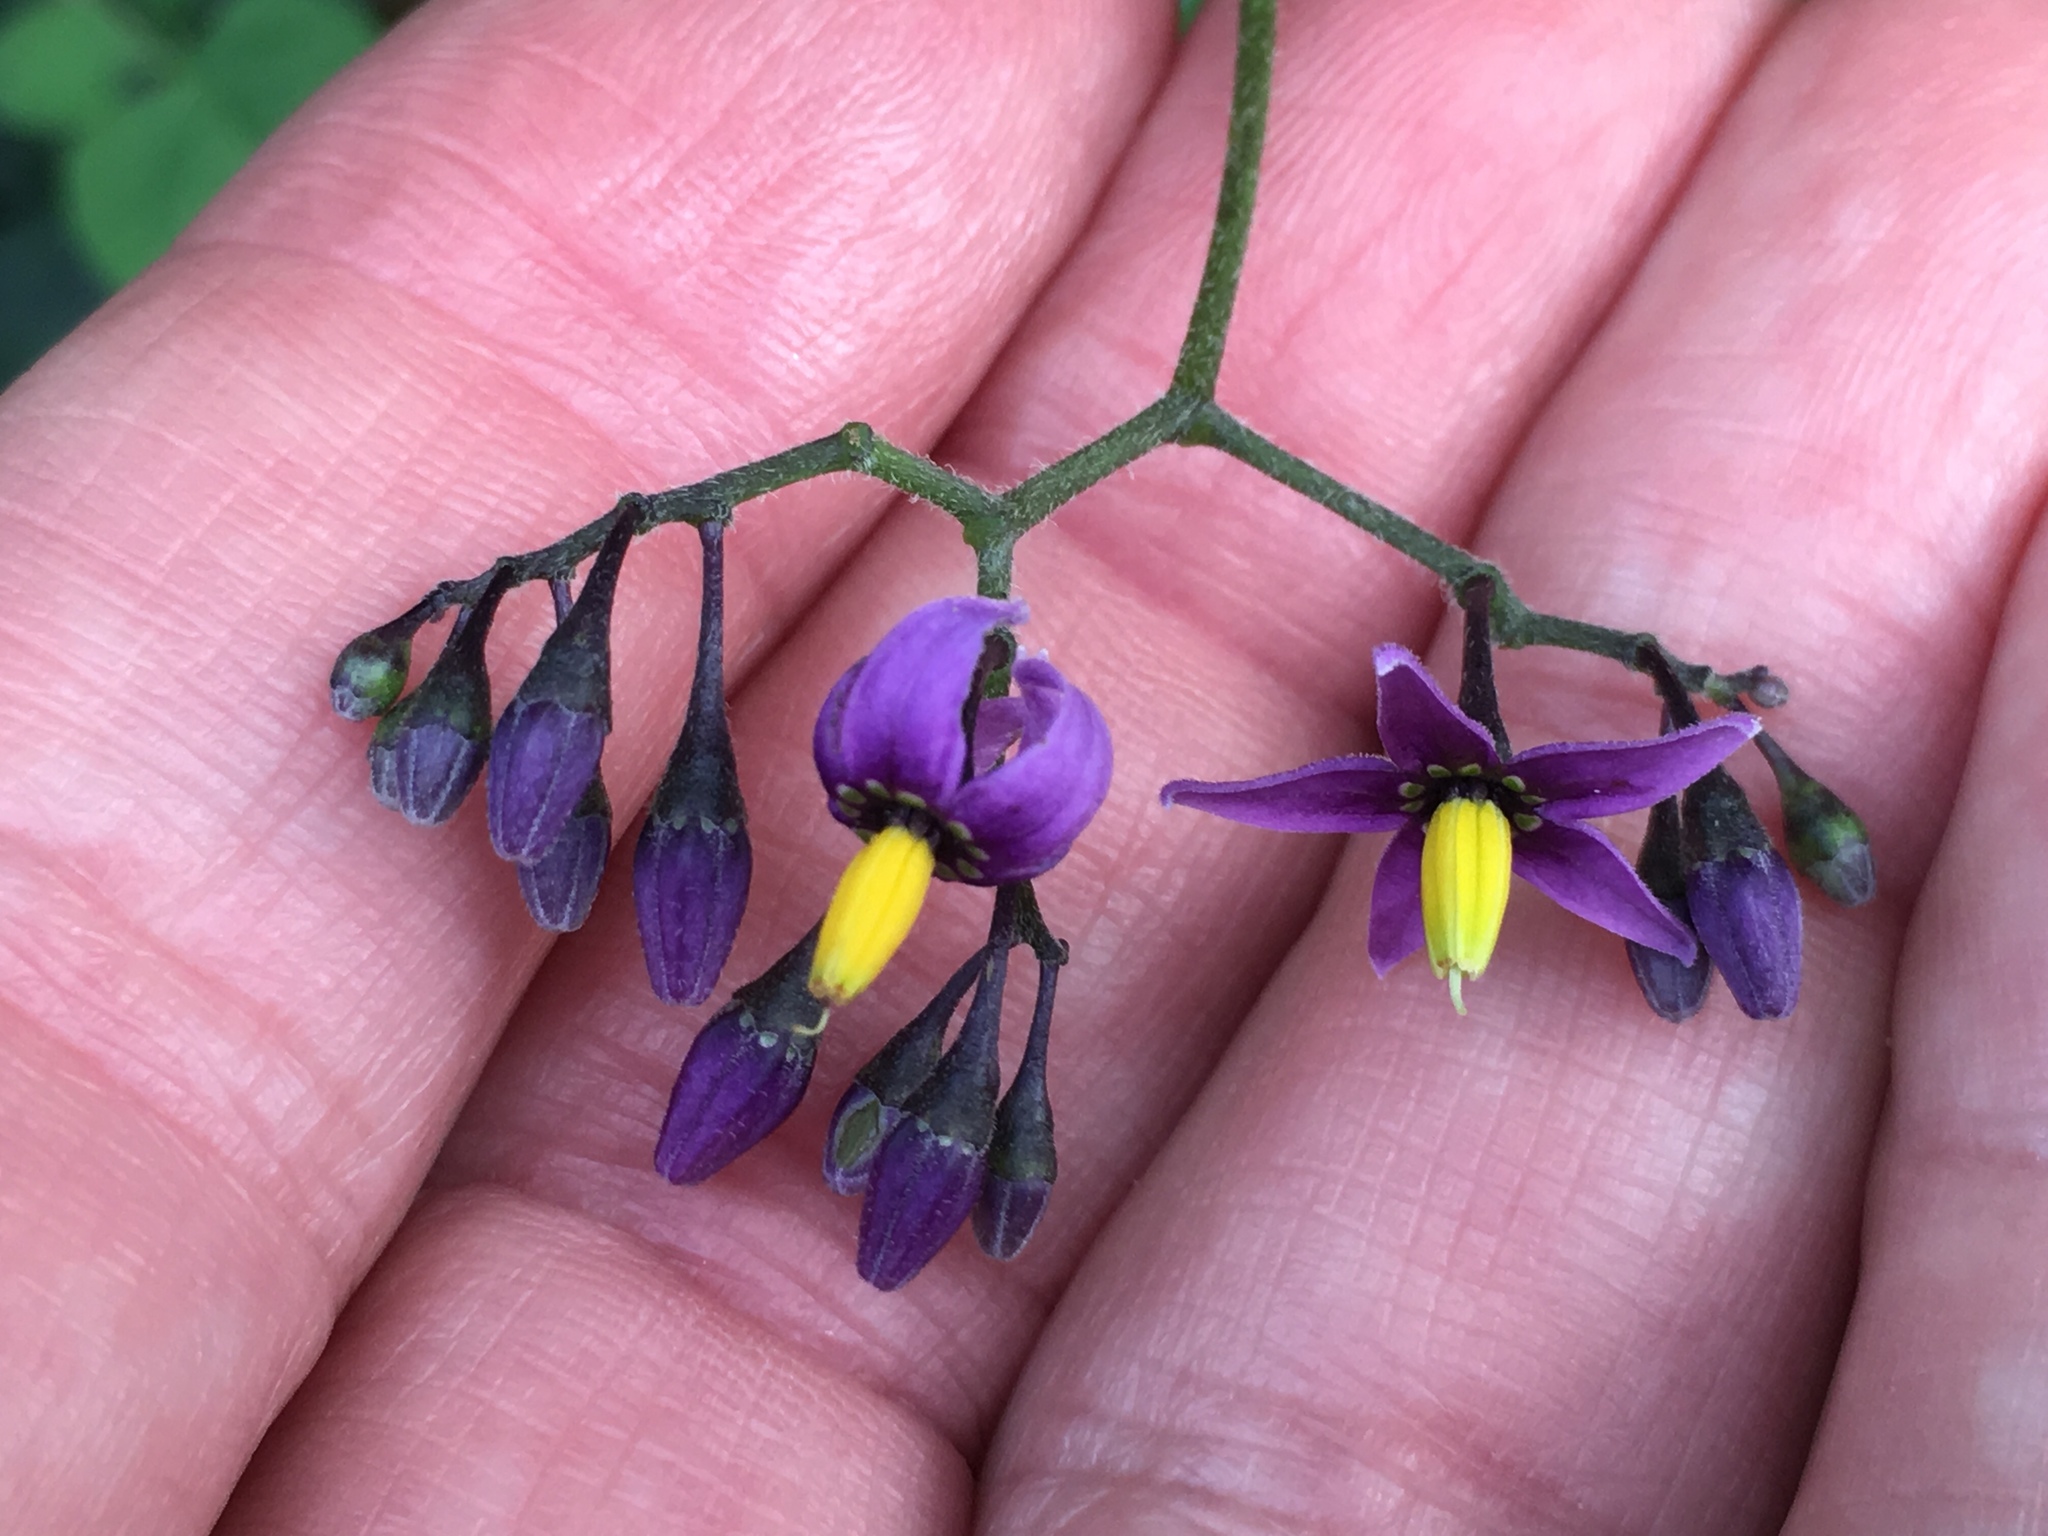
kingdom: Plantae
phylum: Tracheophyta
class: Magnoliopsida
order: Solanales
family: Solanaceae
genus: Solanum
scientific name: Solanum dulcamara
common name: Climbing nightshade
